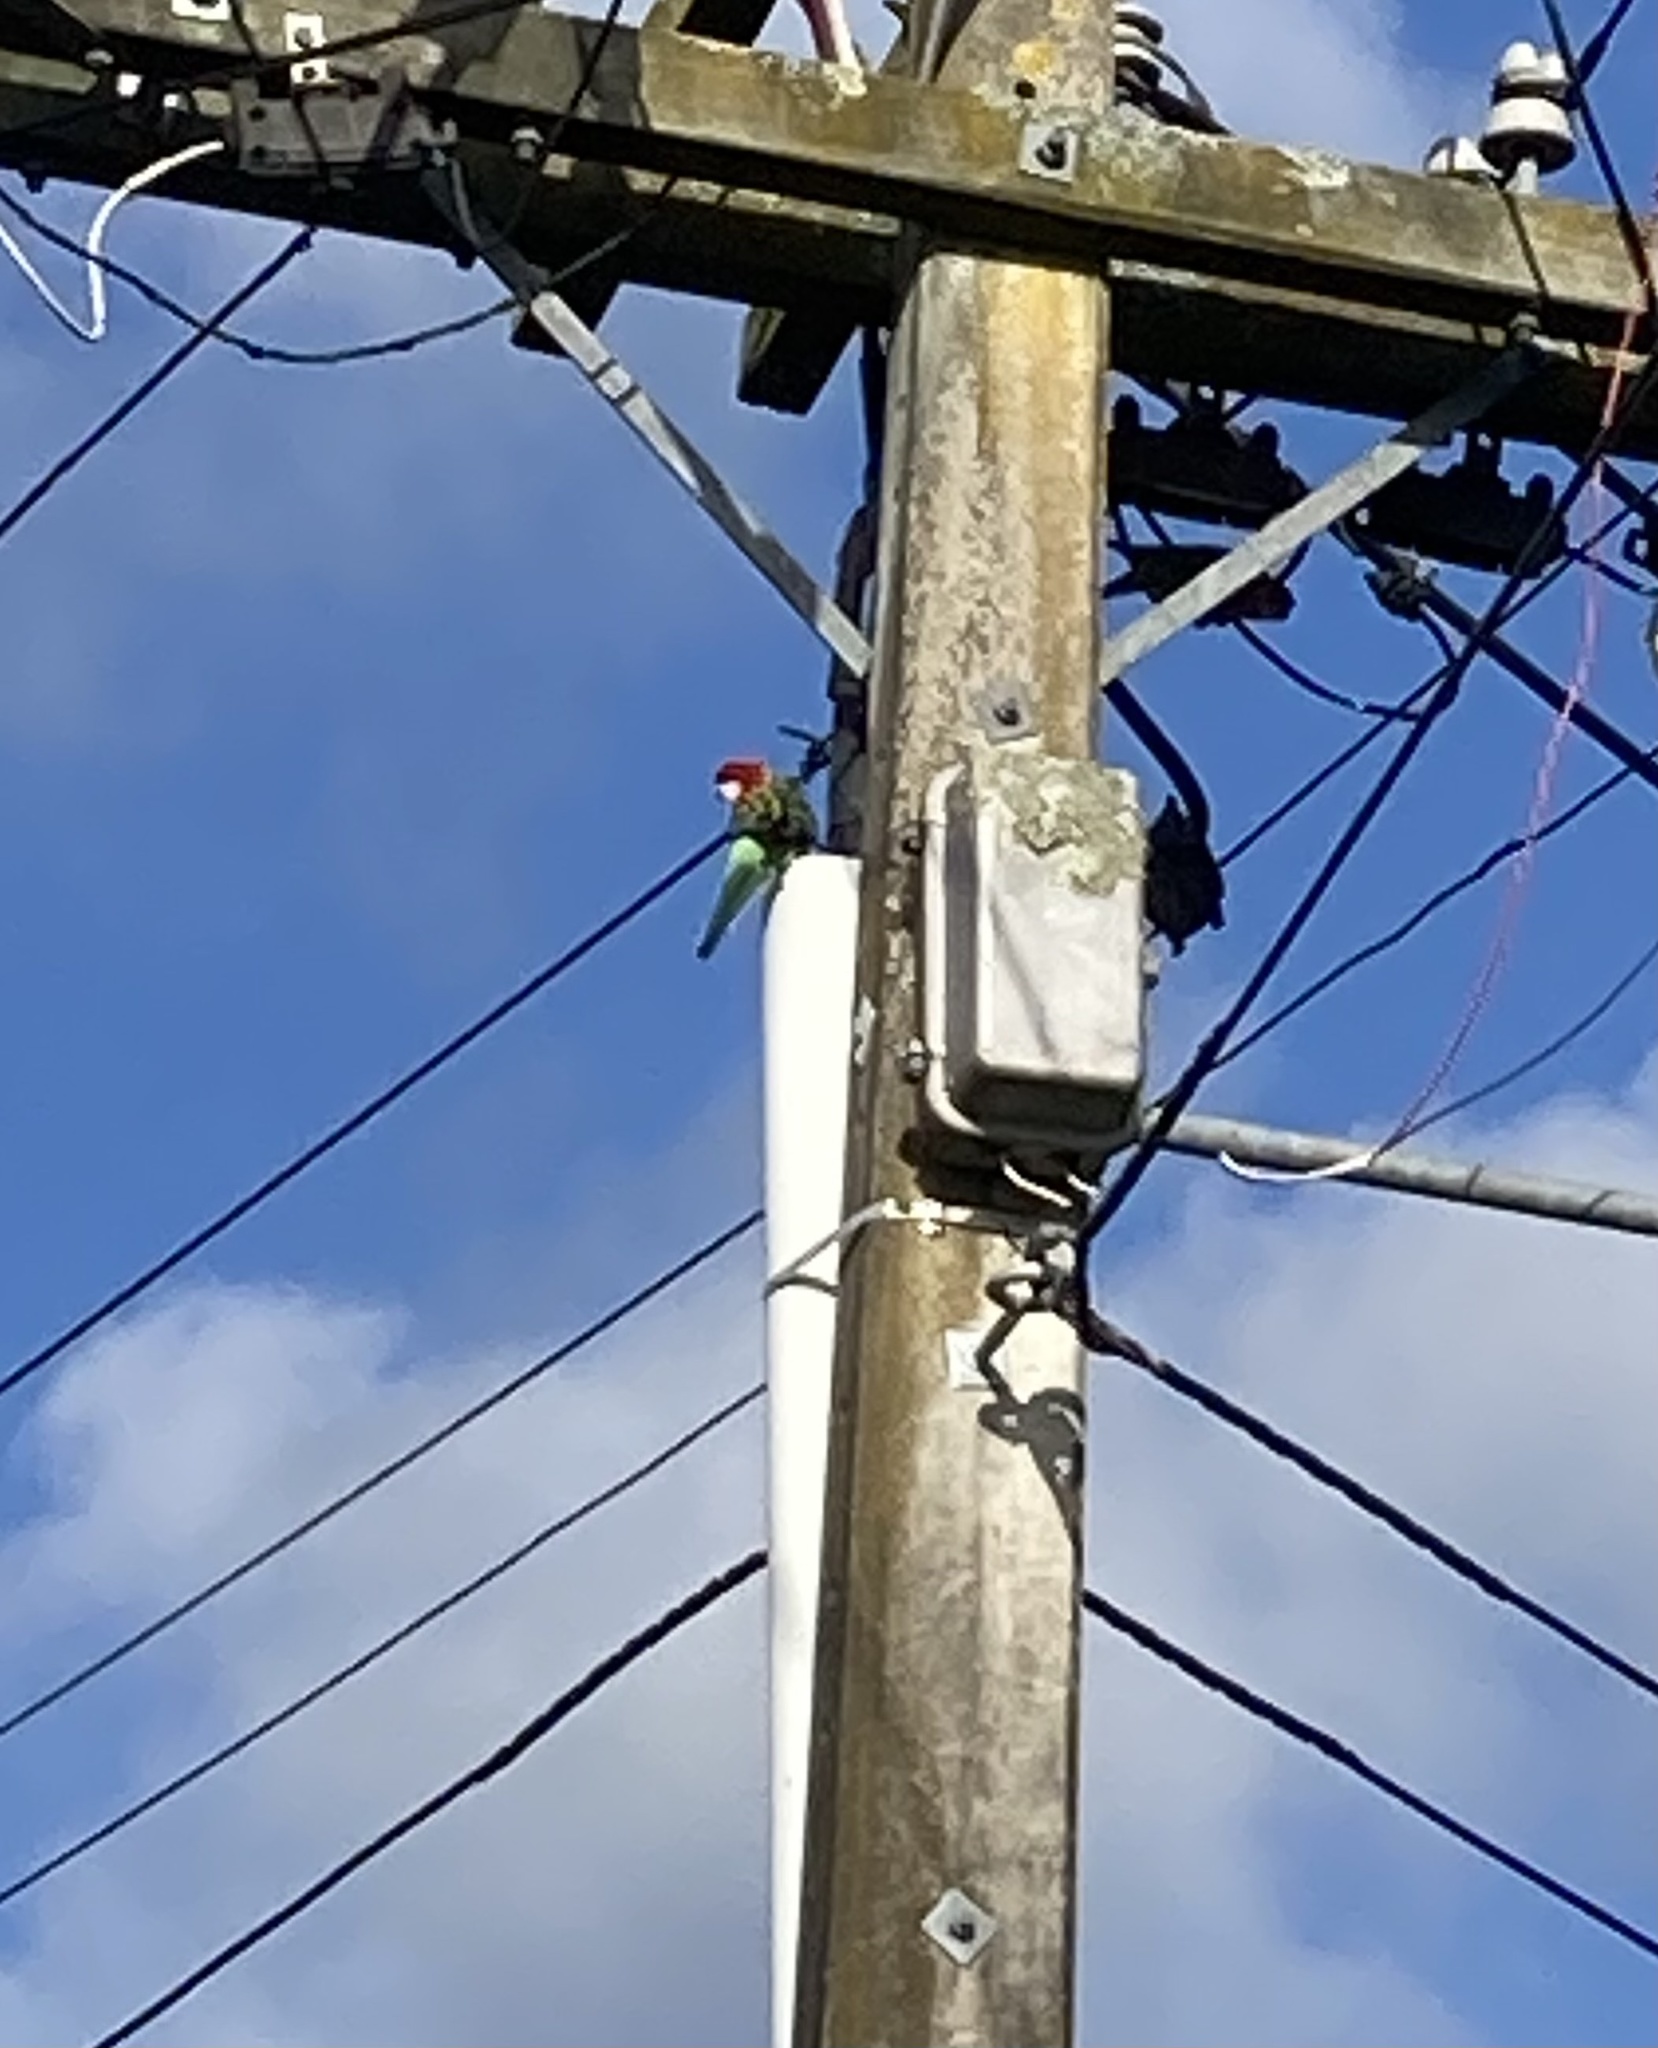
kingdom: Animalia
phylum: Chordata
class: Aves
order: Psittaciformes
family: Psittacidae
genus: Platycercus
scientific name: Platycercus eximius
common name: Eastern rosella
